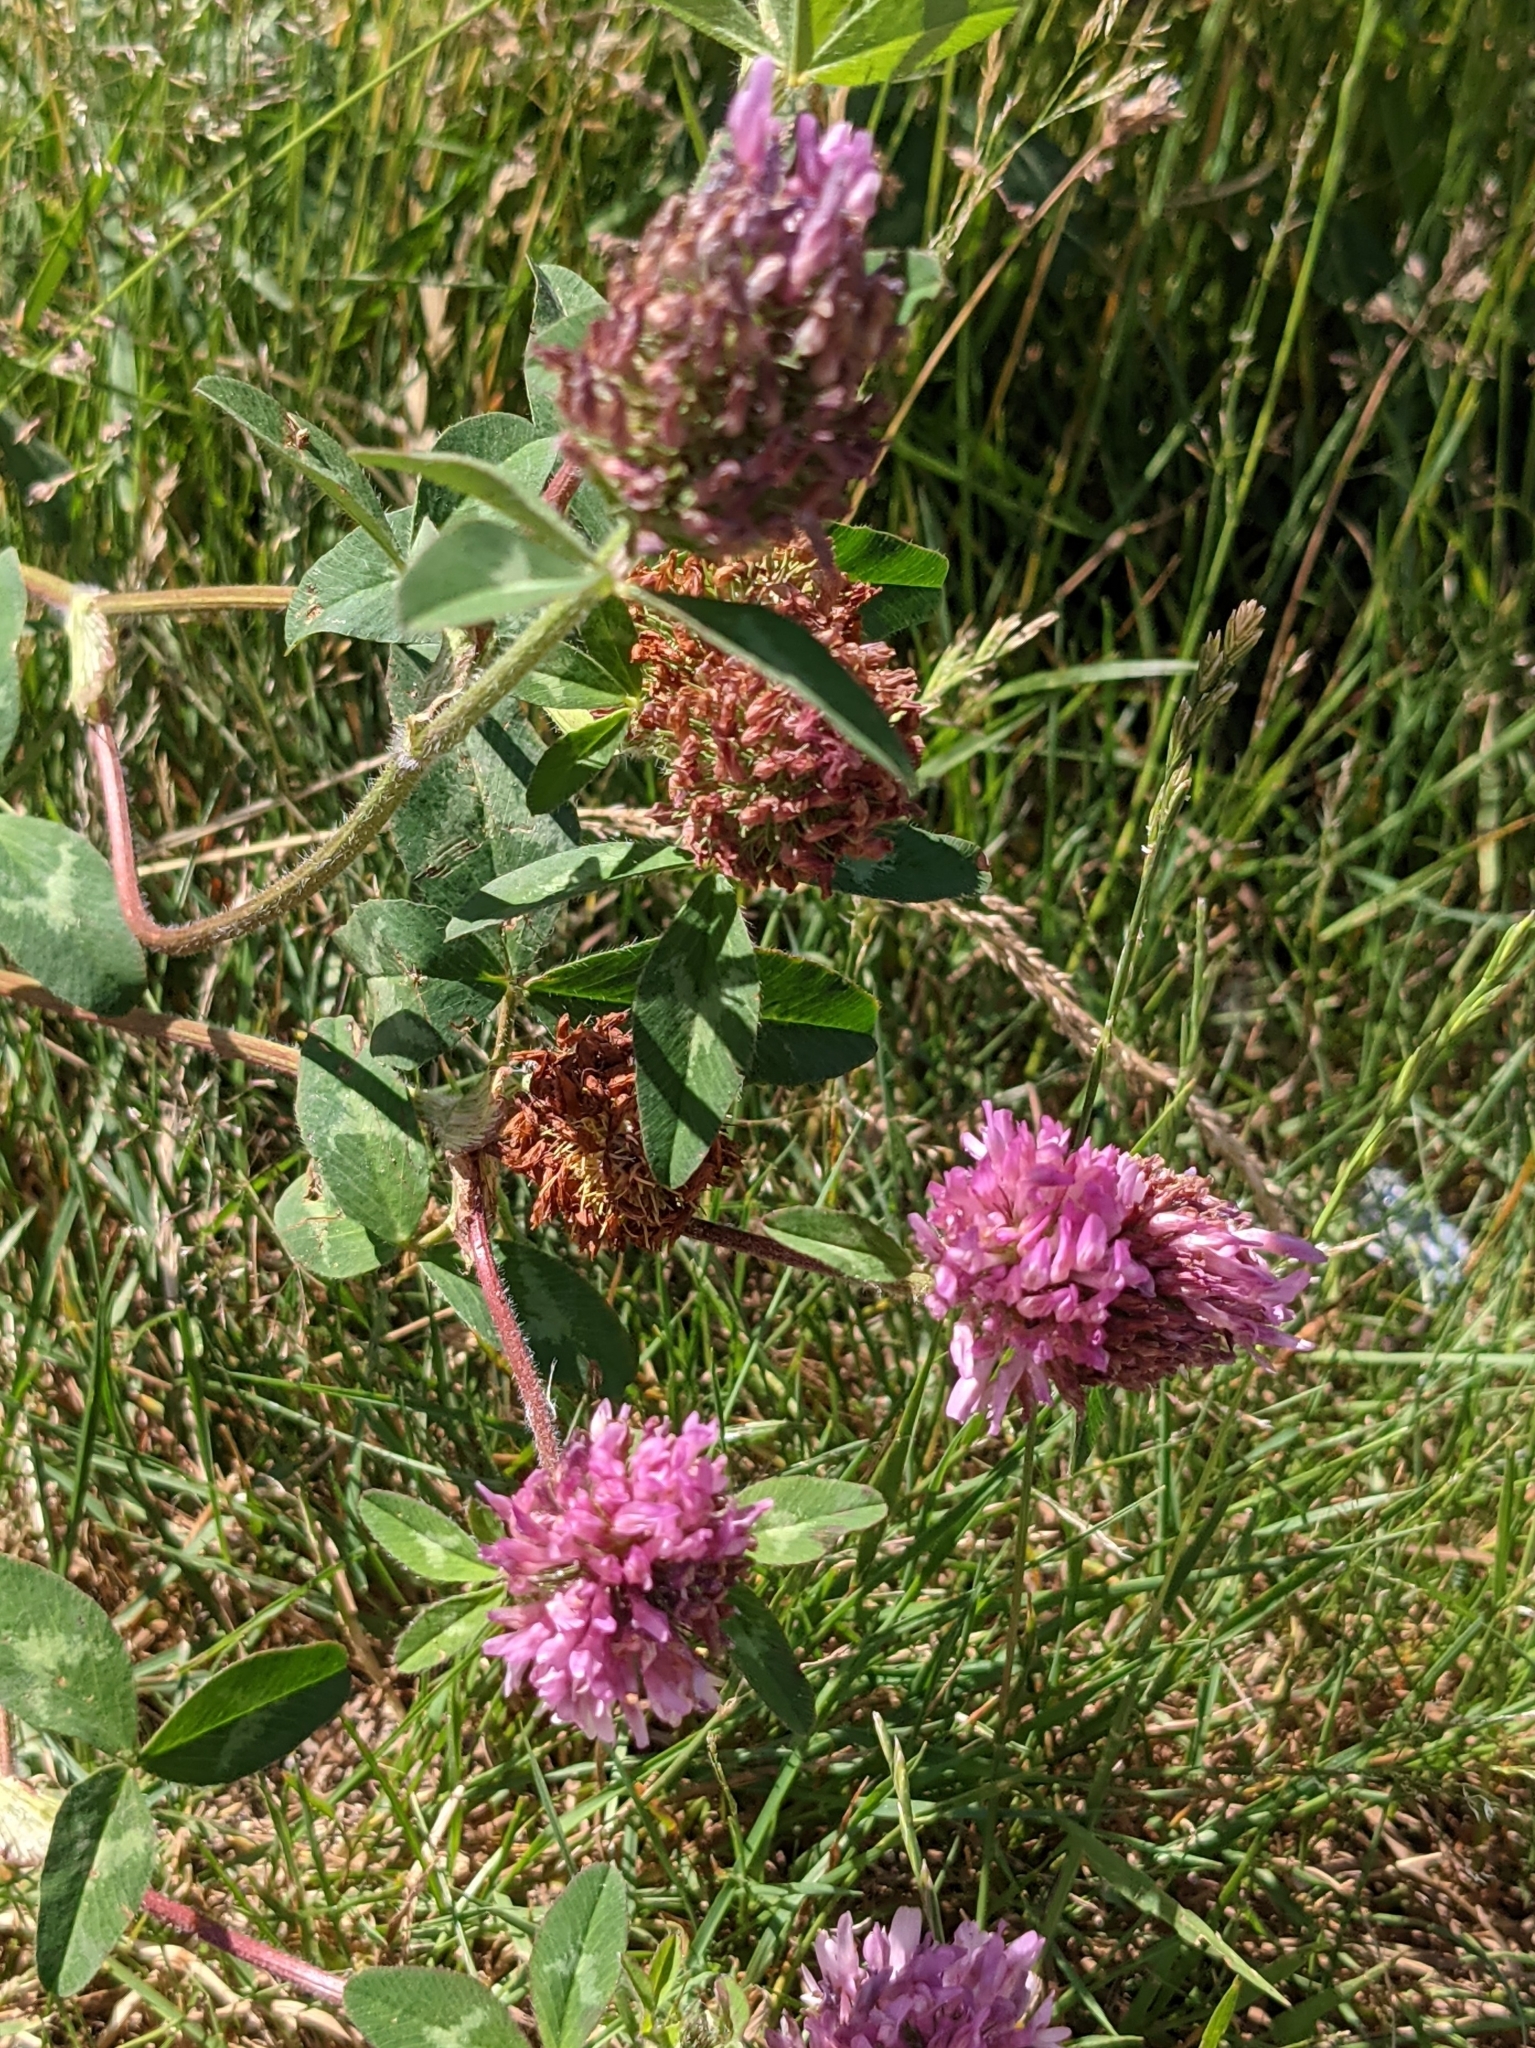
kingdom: Plantae
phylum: Tracheophyta
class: Magnoliopsida
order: Fabales
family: Fabaceae
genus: Trifolium
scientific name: Trifolium pratense
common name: Red clover
